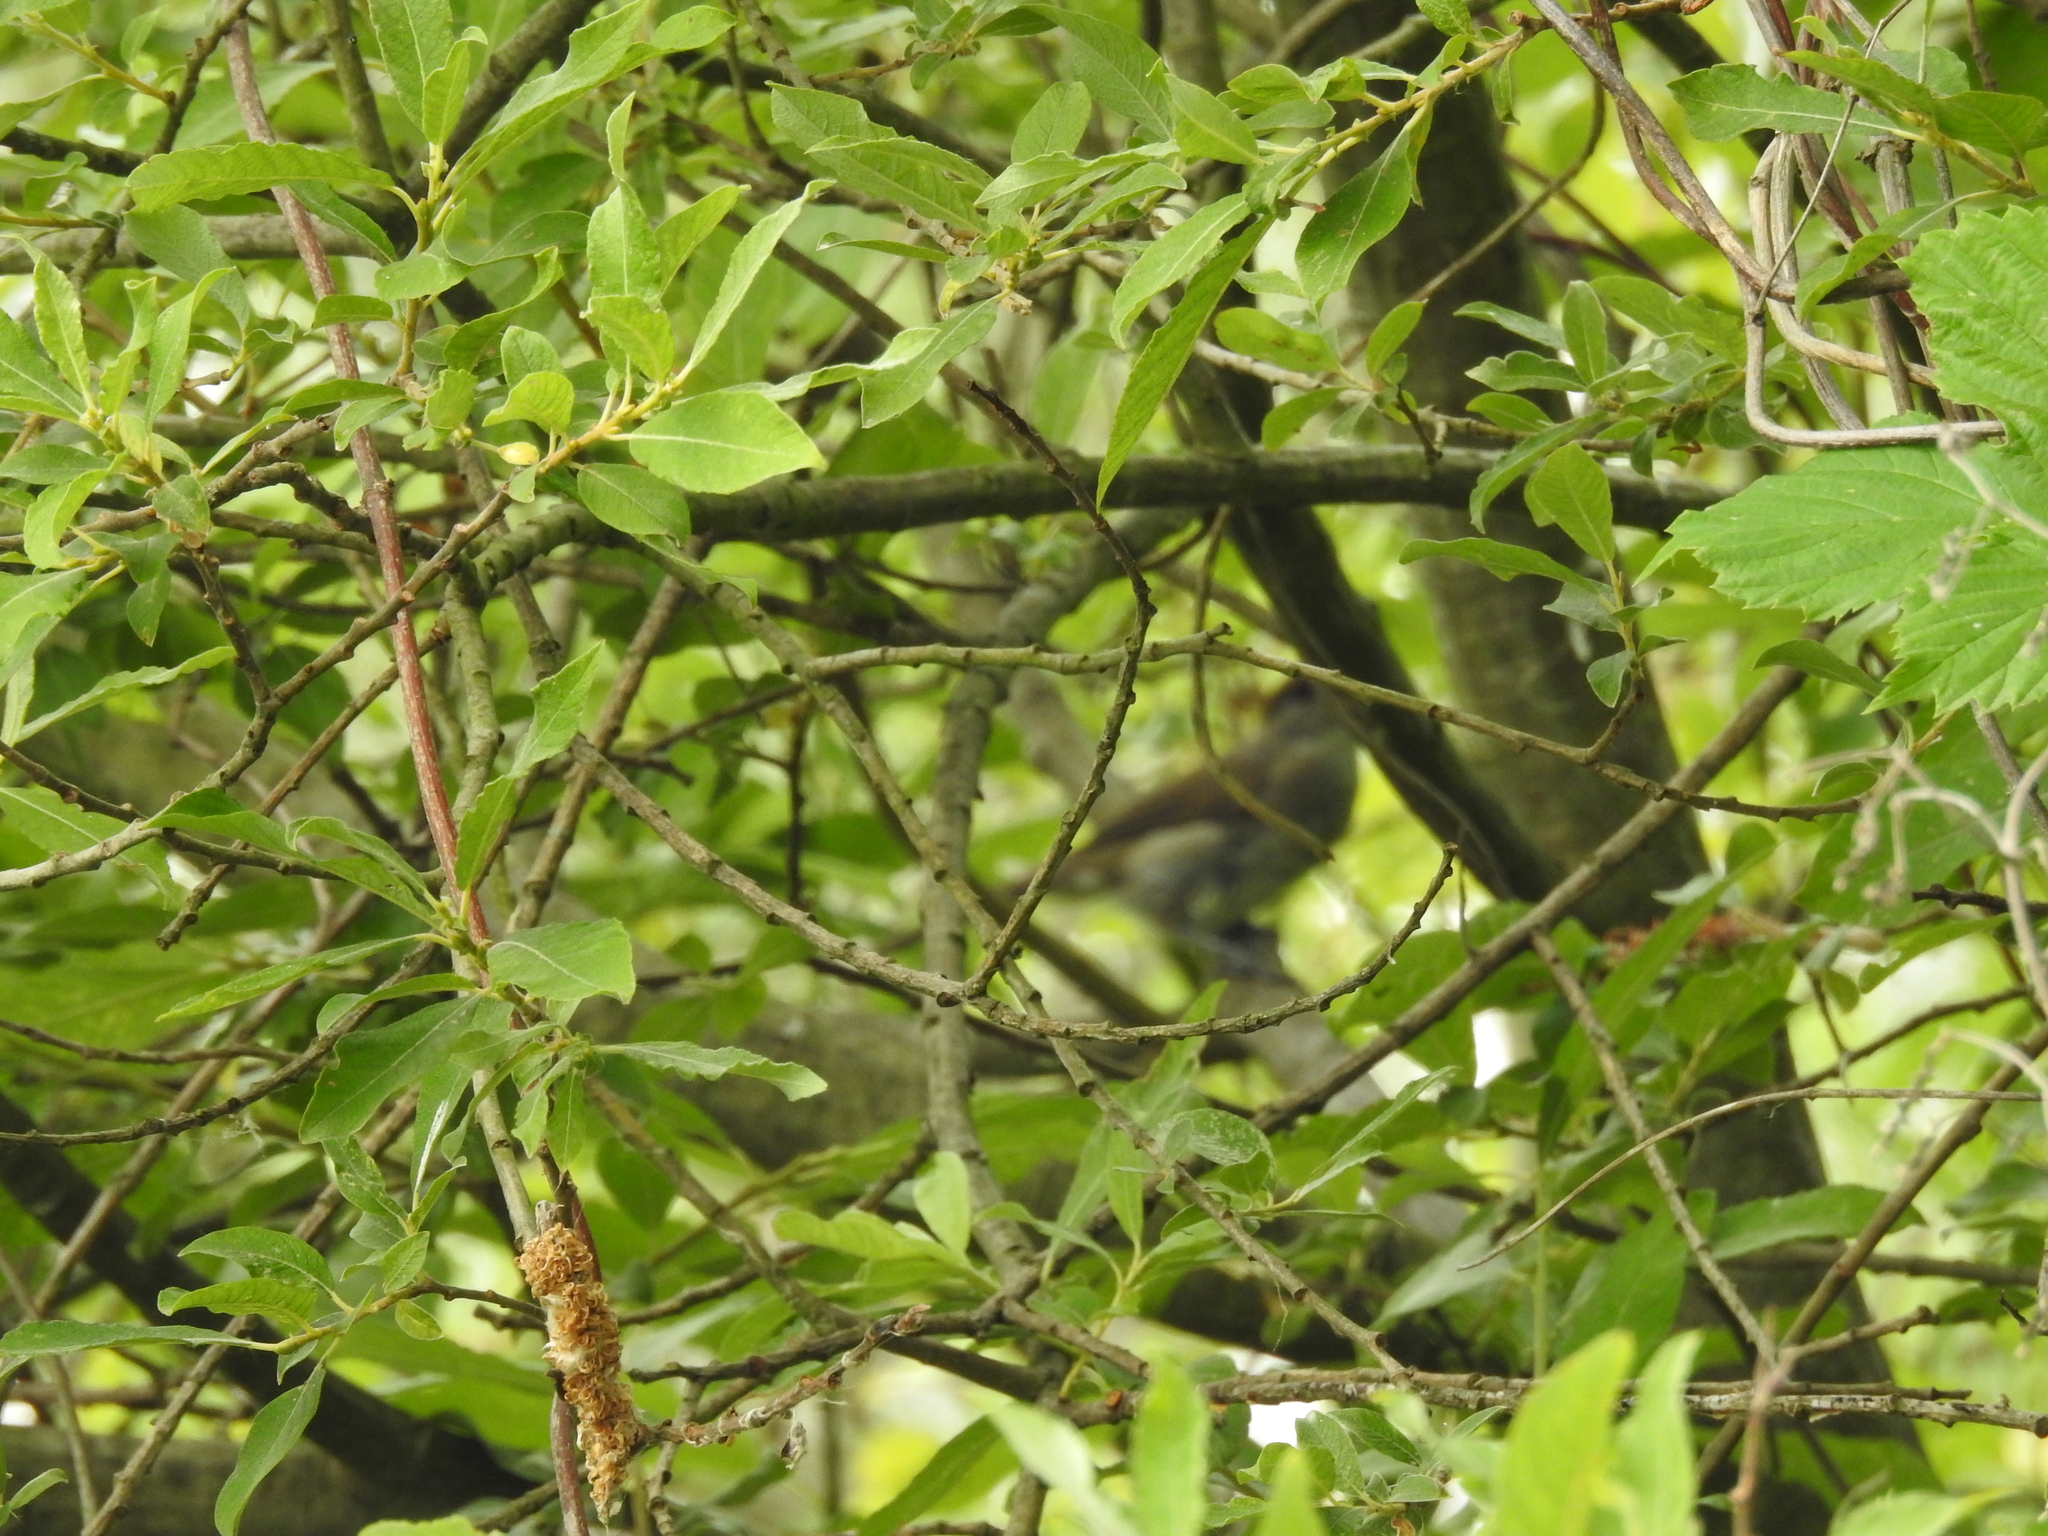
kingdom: Animalia
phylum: Chordata
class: Aves
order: Passeriformes
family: Sylviidae
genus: Sylvia
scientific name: Sylvia atricapilla
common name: Eurasian blackcap
